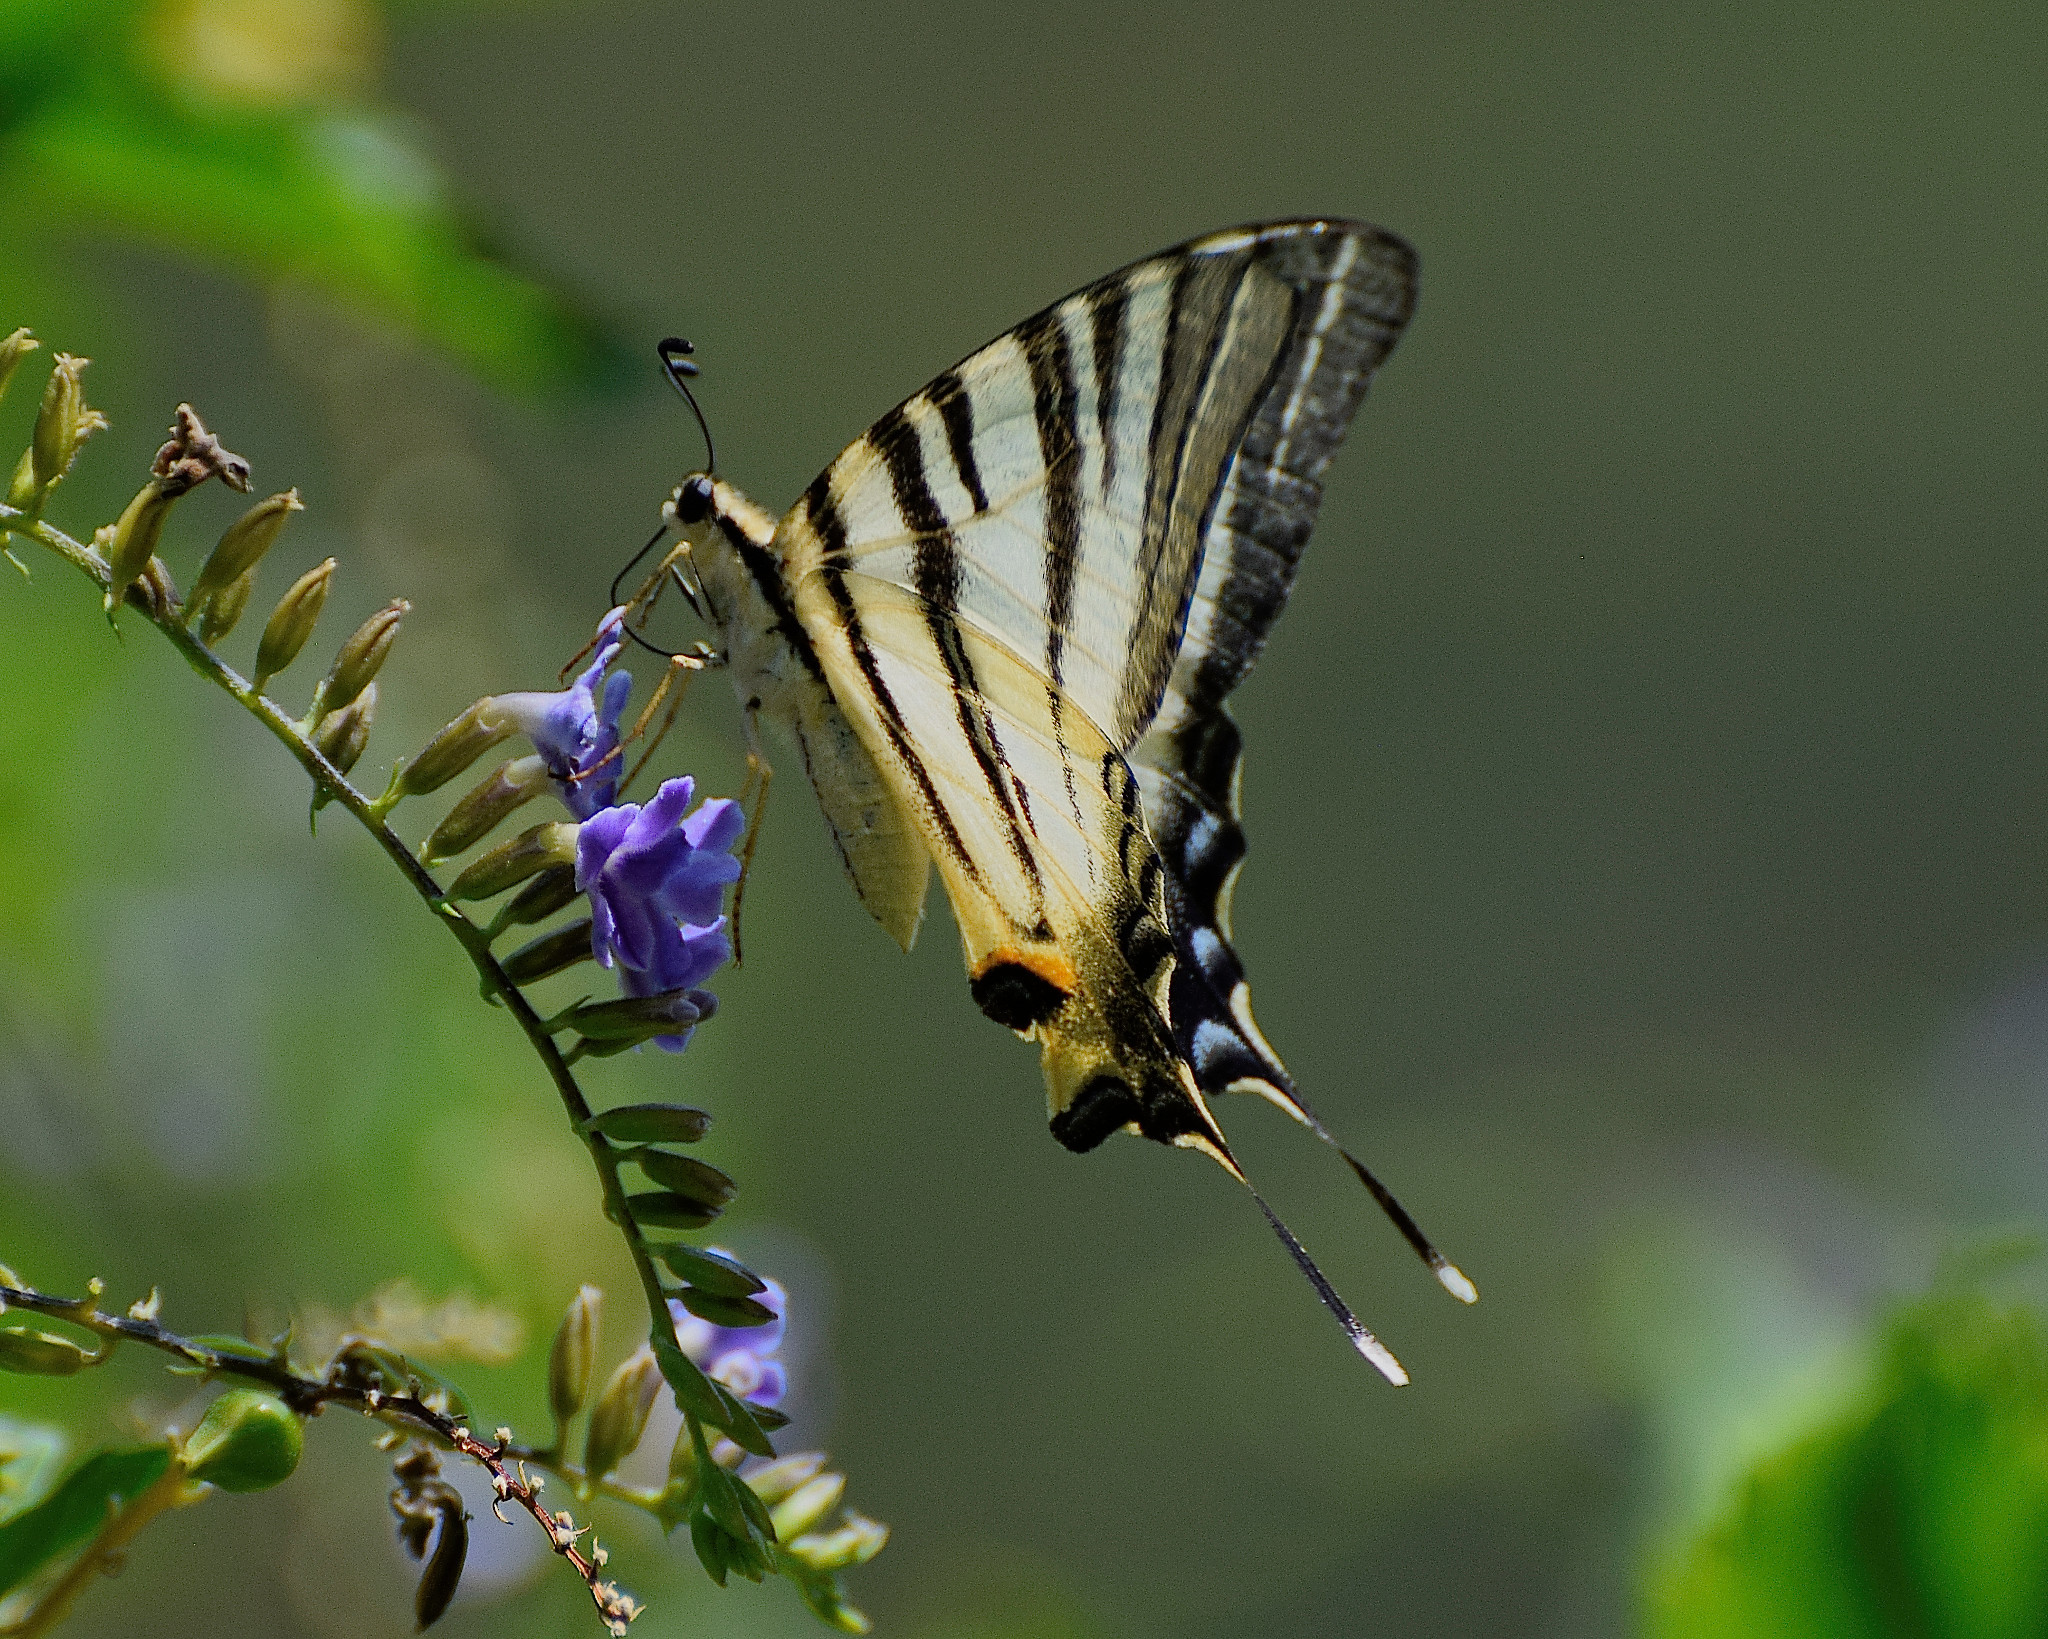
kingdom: Animalia
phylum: Arthropoda
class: Insecta
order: Lepidoptera
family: Papilionidae
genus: Iphiclides
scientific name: Iphiclides podalirius
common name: Scarce swallowtail
